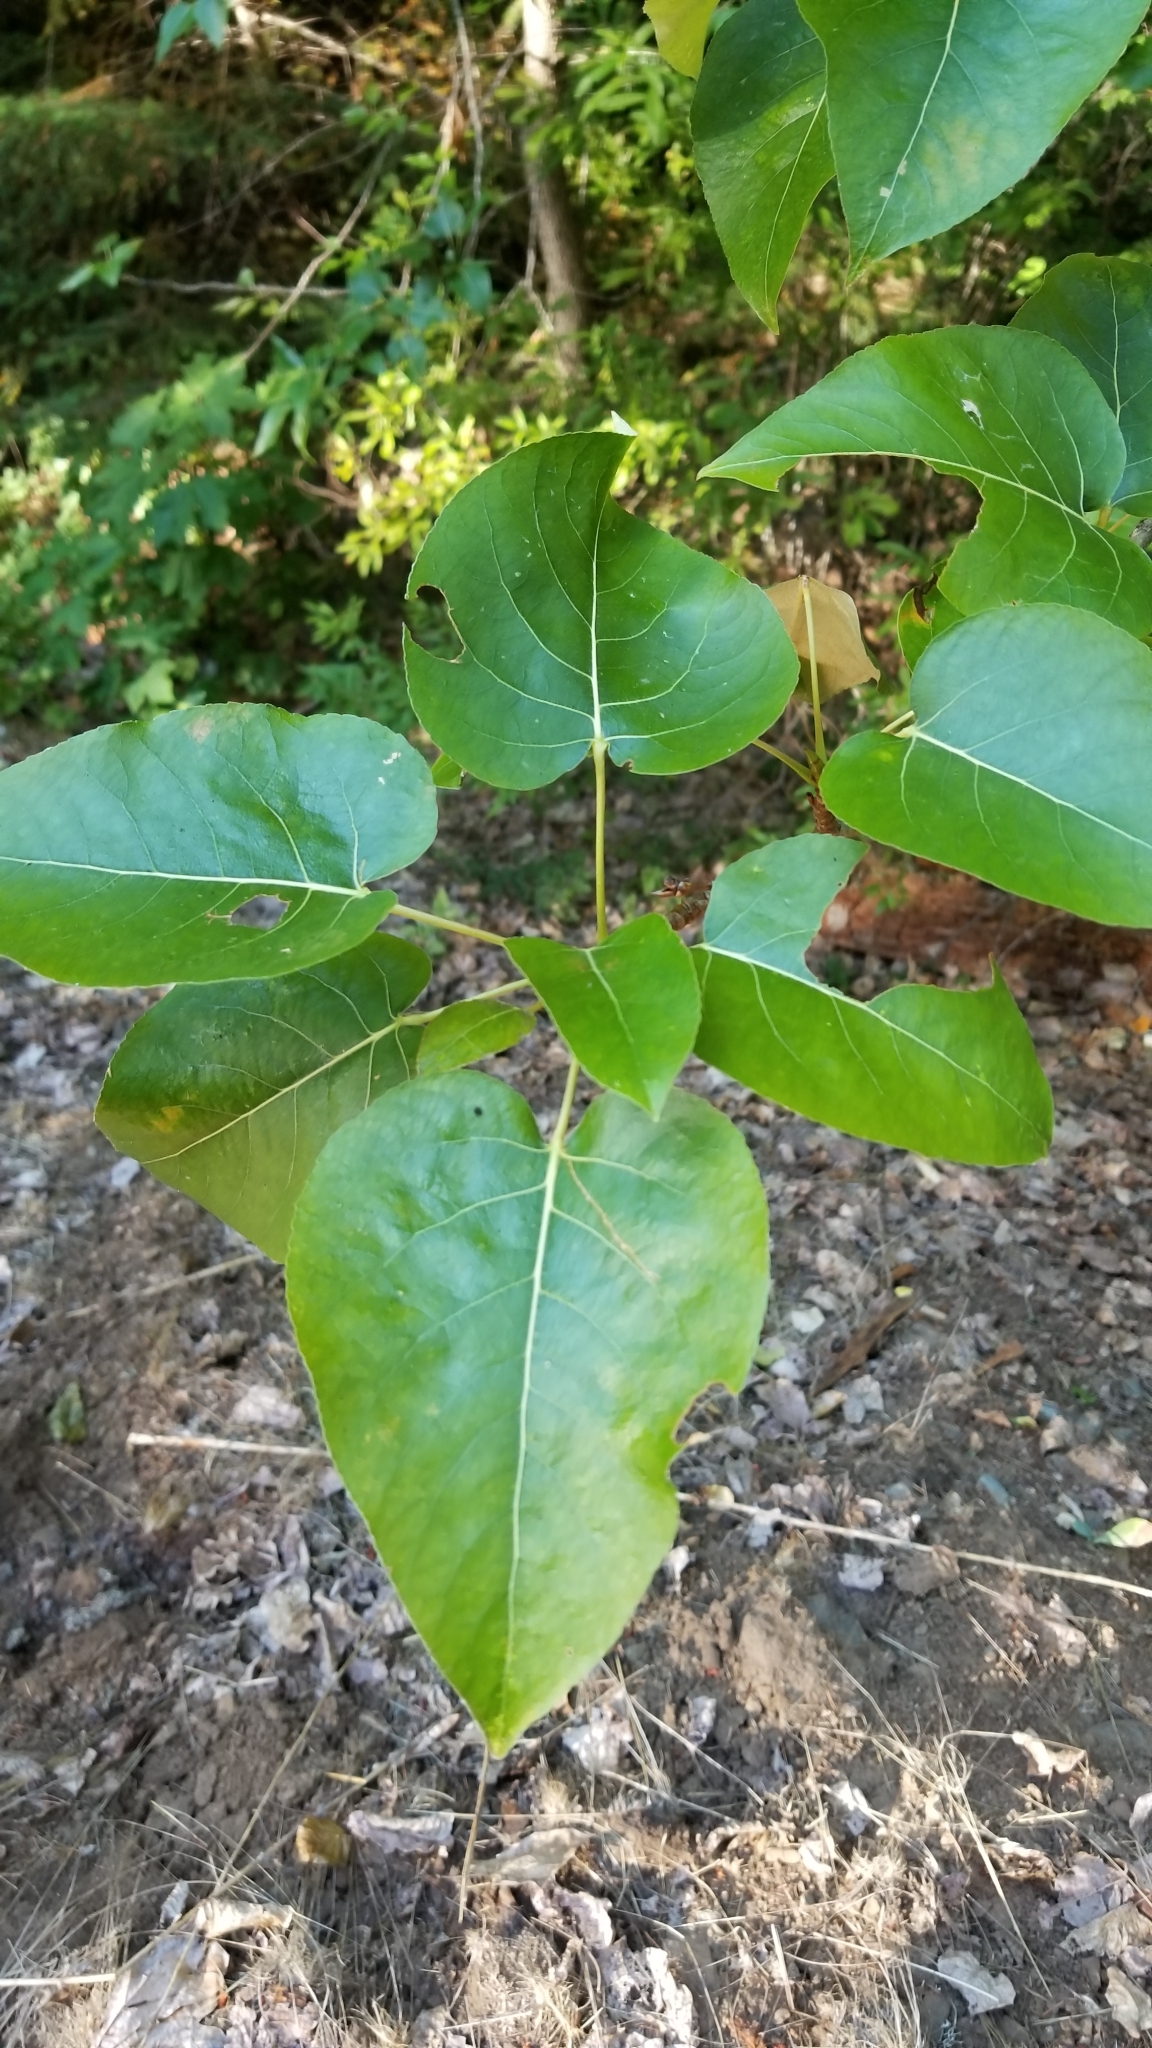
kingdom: Plantae
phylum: Tracheophyta
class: Magnoliopsida
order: Malpighiales
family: Salicaceae
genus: Populus
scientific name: Populus trichocarpa
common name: Black cottonwood
